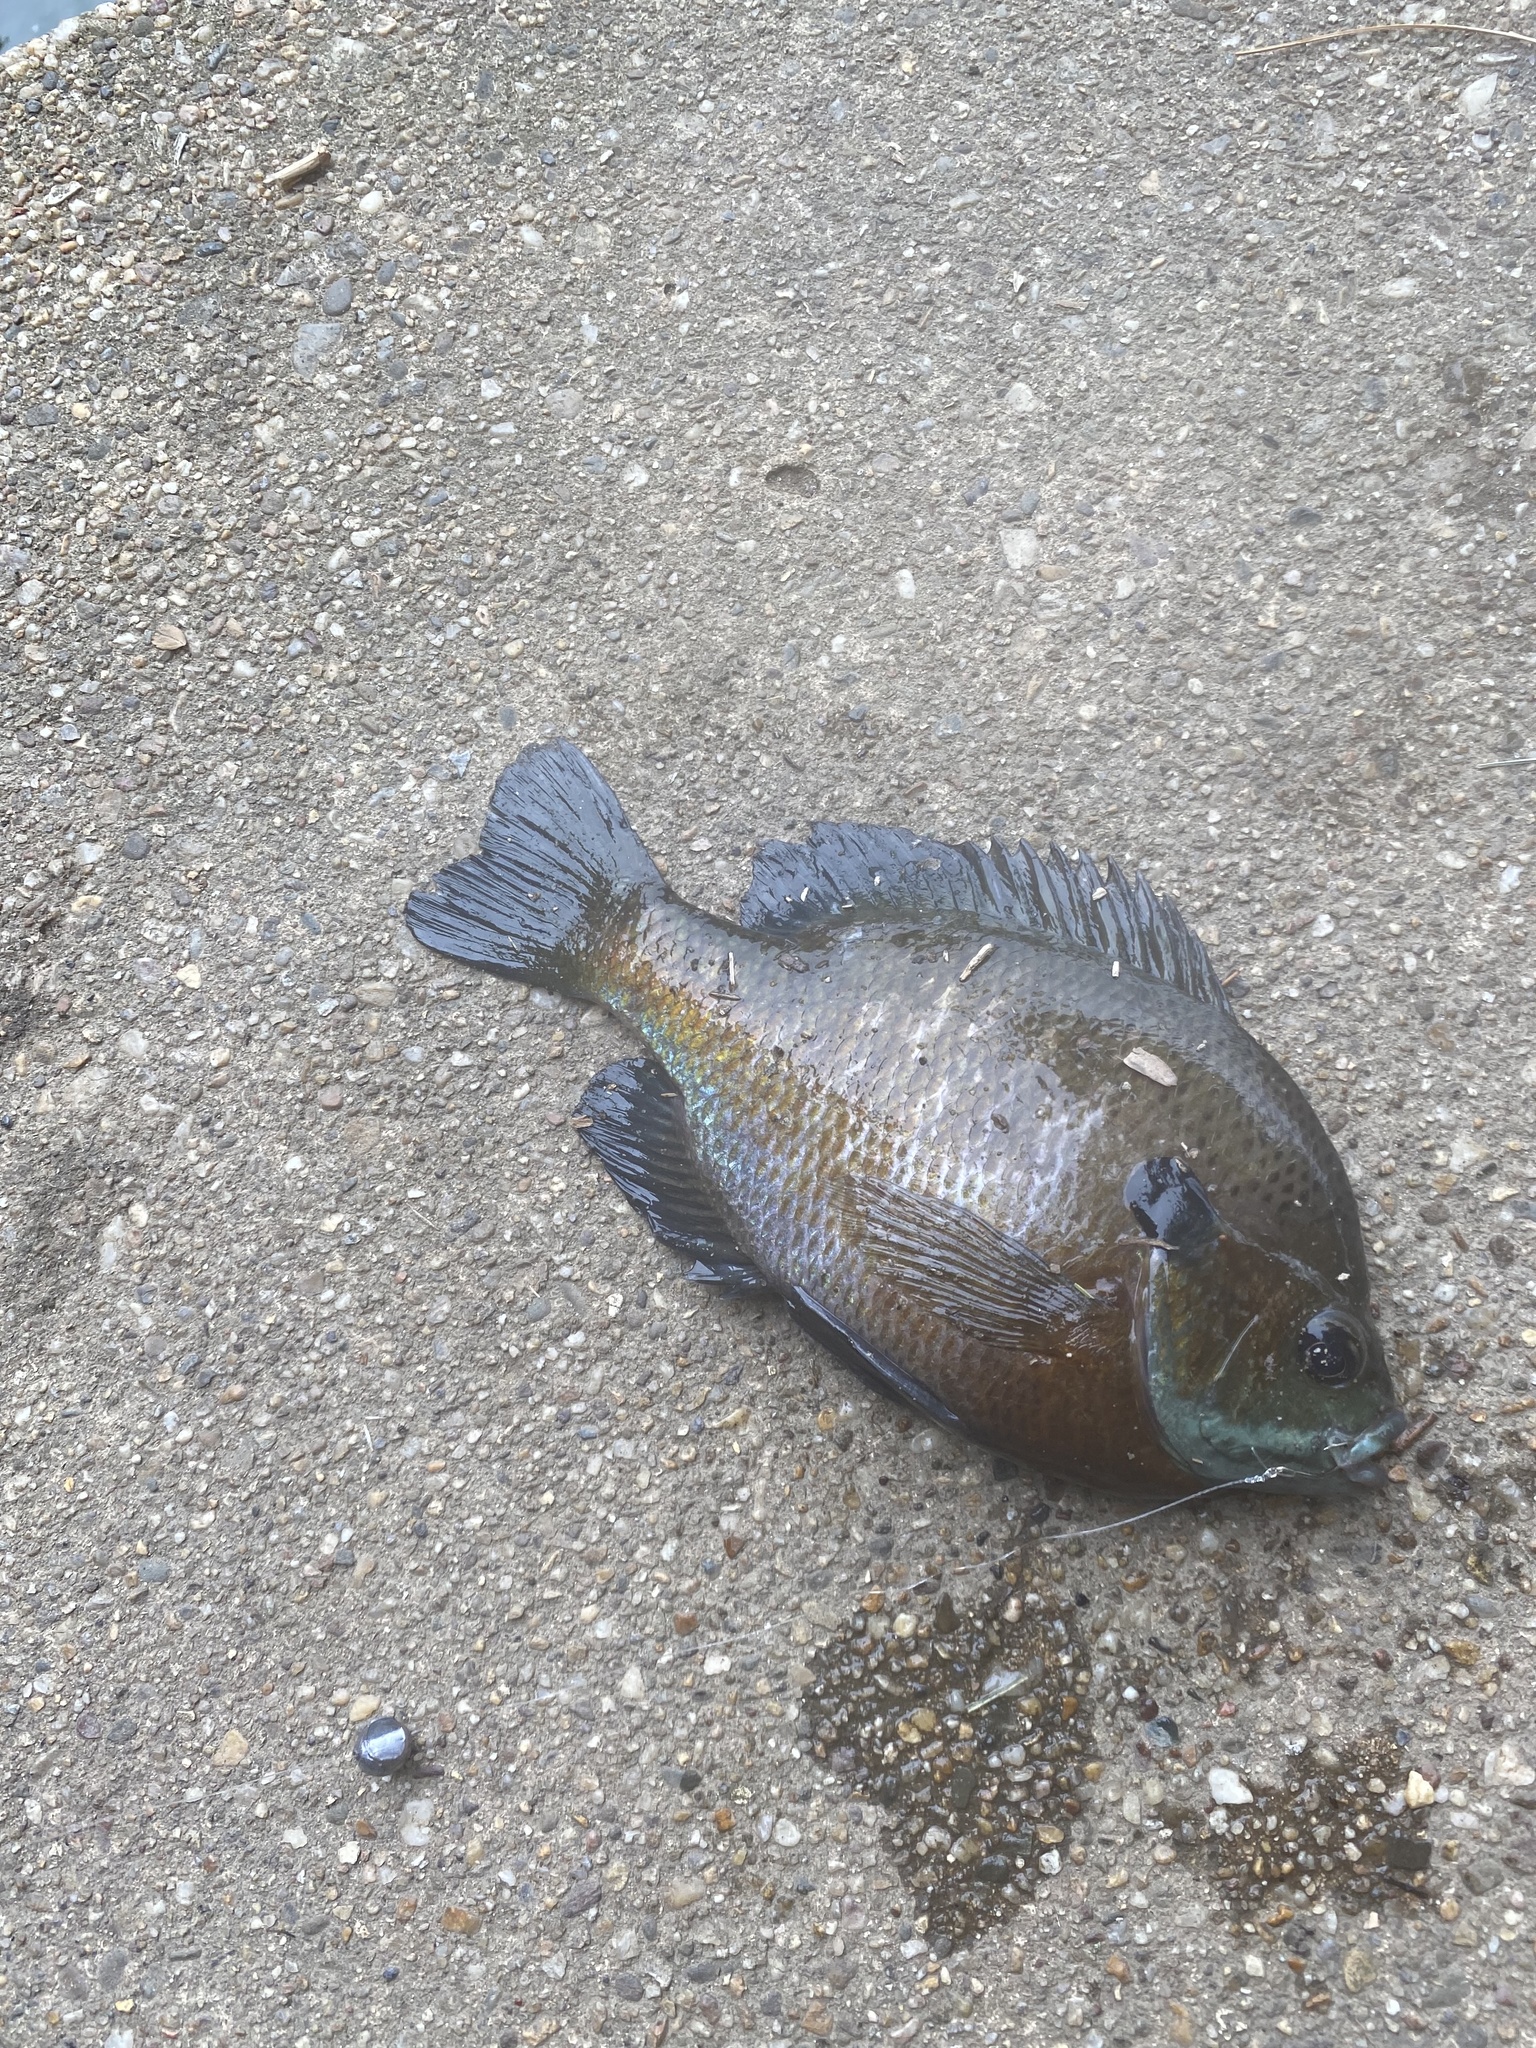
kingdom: Animalia
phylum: Chordata
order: Perciformes
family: Centrarchidae
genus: Lepomis
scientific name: Lepomis macrochirus
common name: Bluegill
